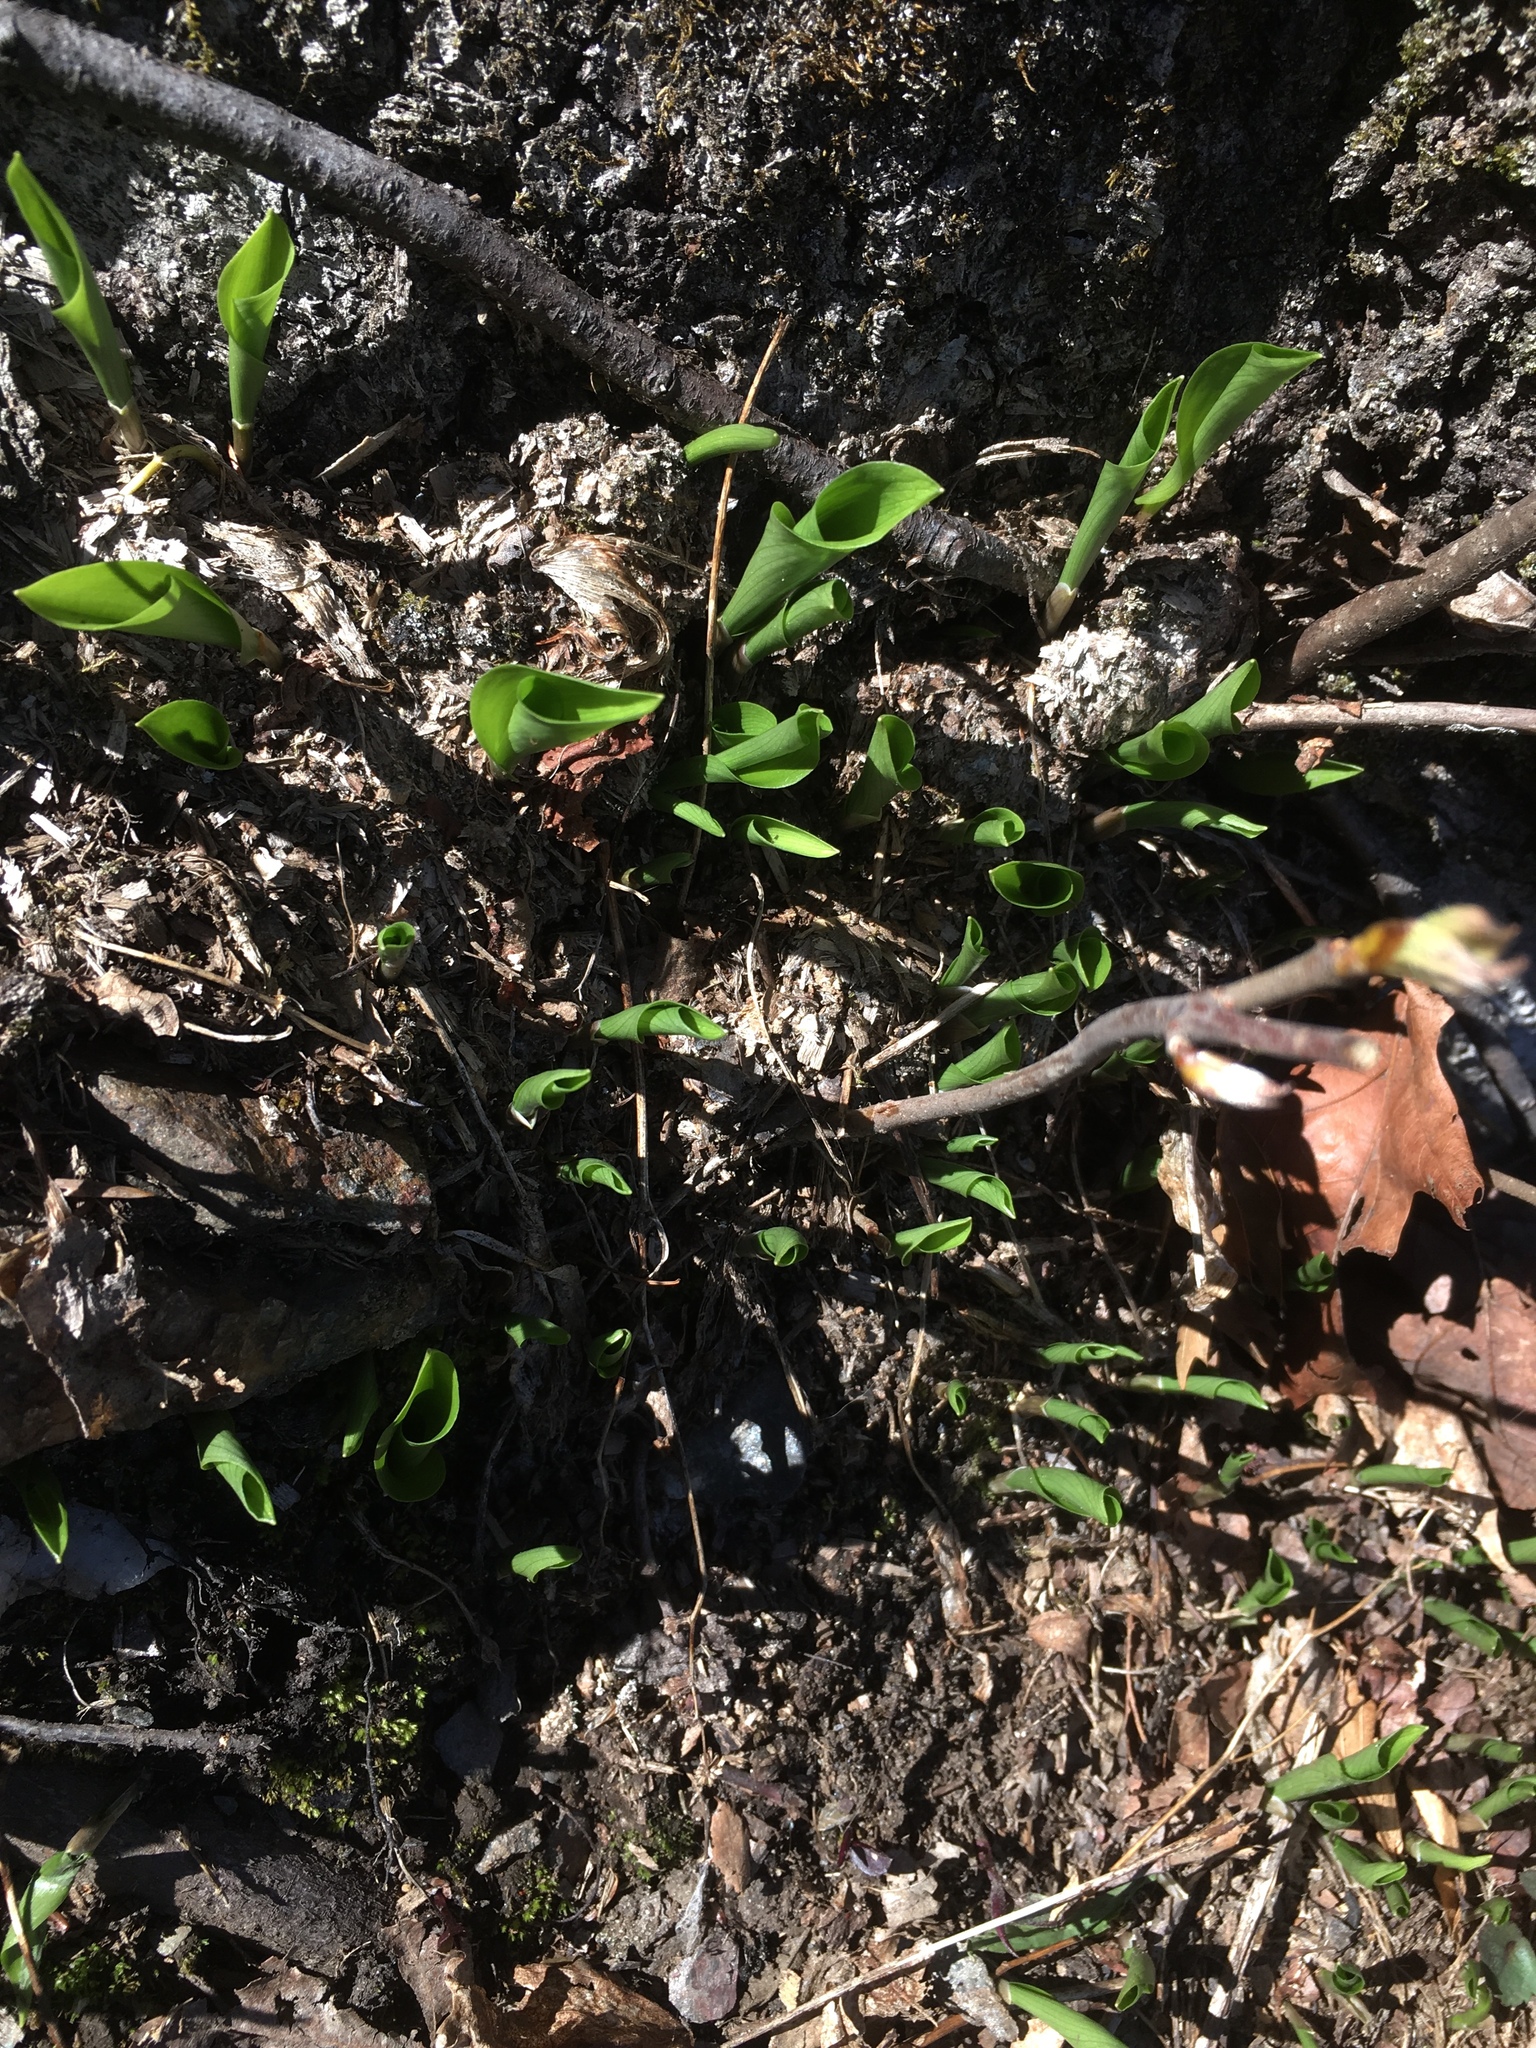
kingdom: Plantae
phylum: Tracheophyta
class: Liliopsida
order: Asparagales
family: Asparagaceae
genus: Maianthemum
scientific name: Maianthemum canadense
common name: False lily-of-the-valley
